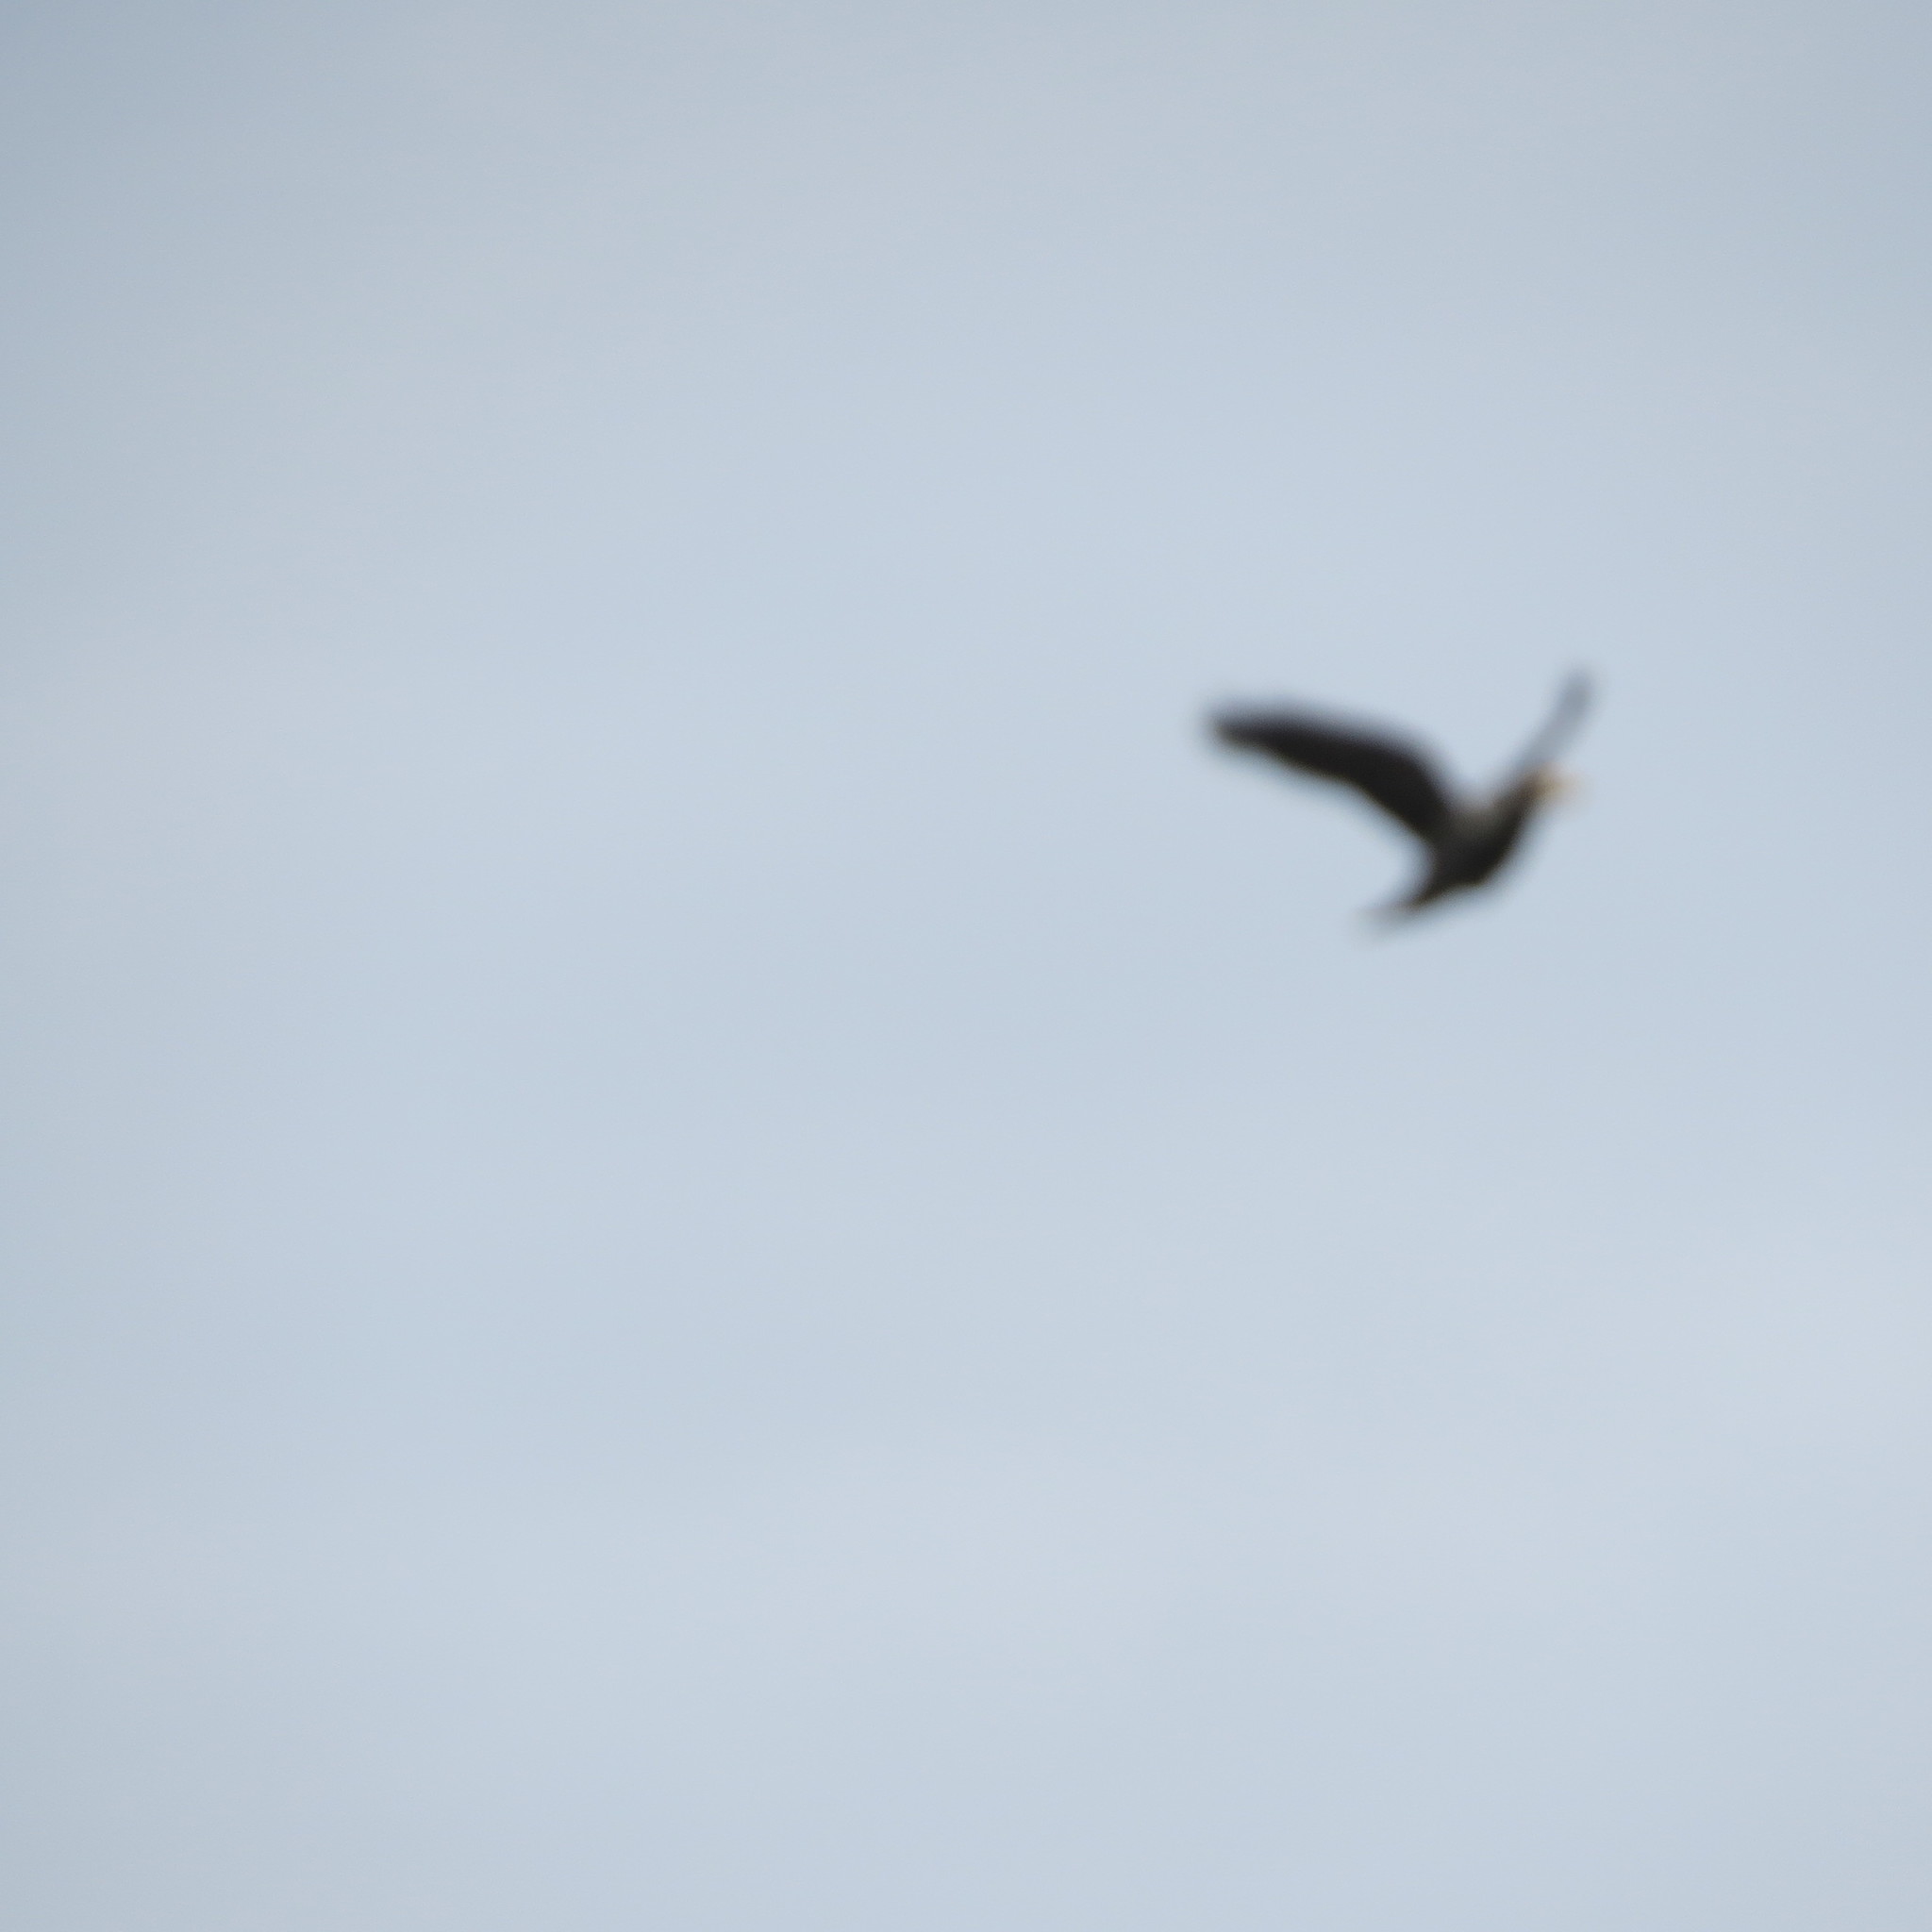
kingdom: Animalia
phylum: Chordata
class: Aves
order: Passeriformes
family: Corvidae
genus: Coloeus
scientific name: Coloeus monedula
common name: Western jackdaw
